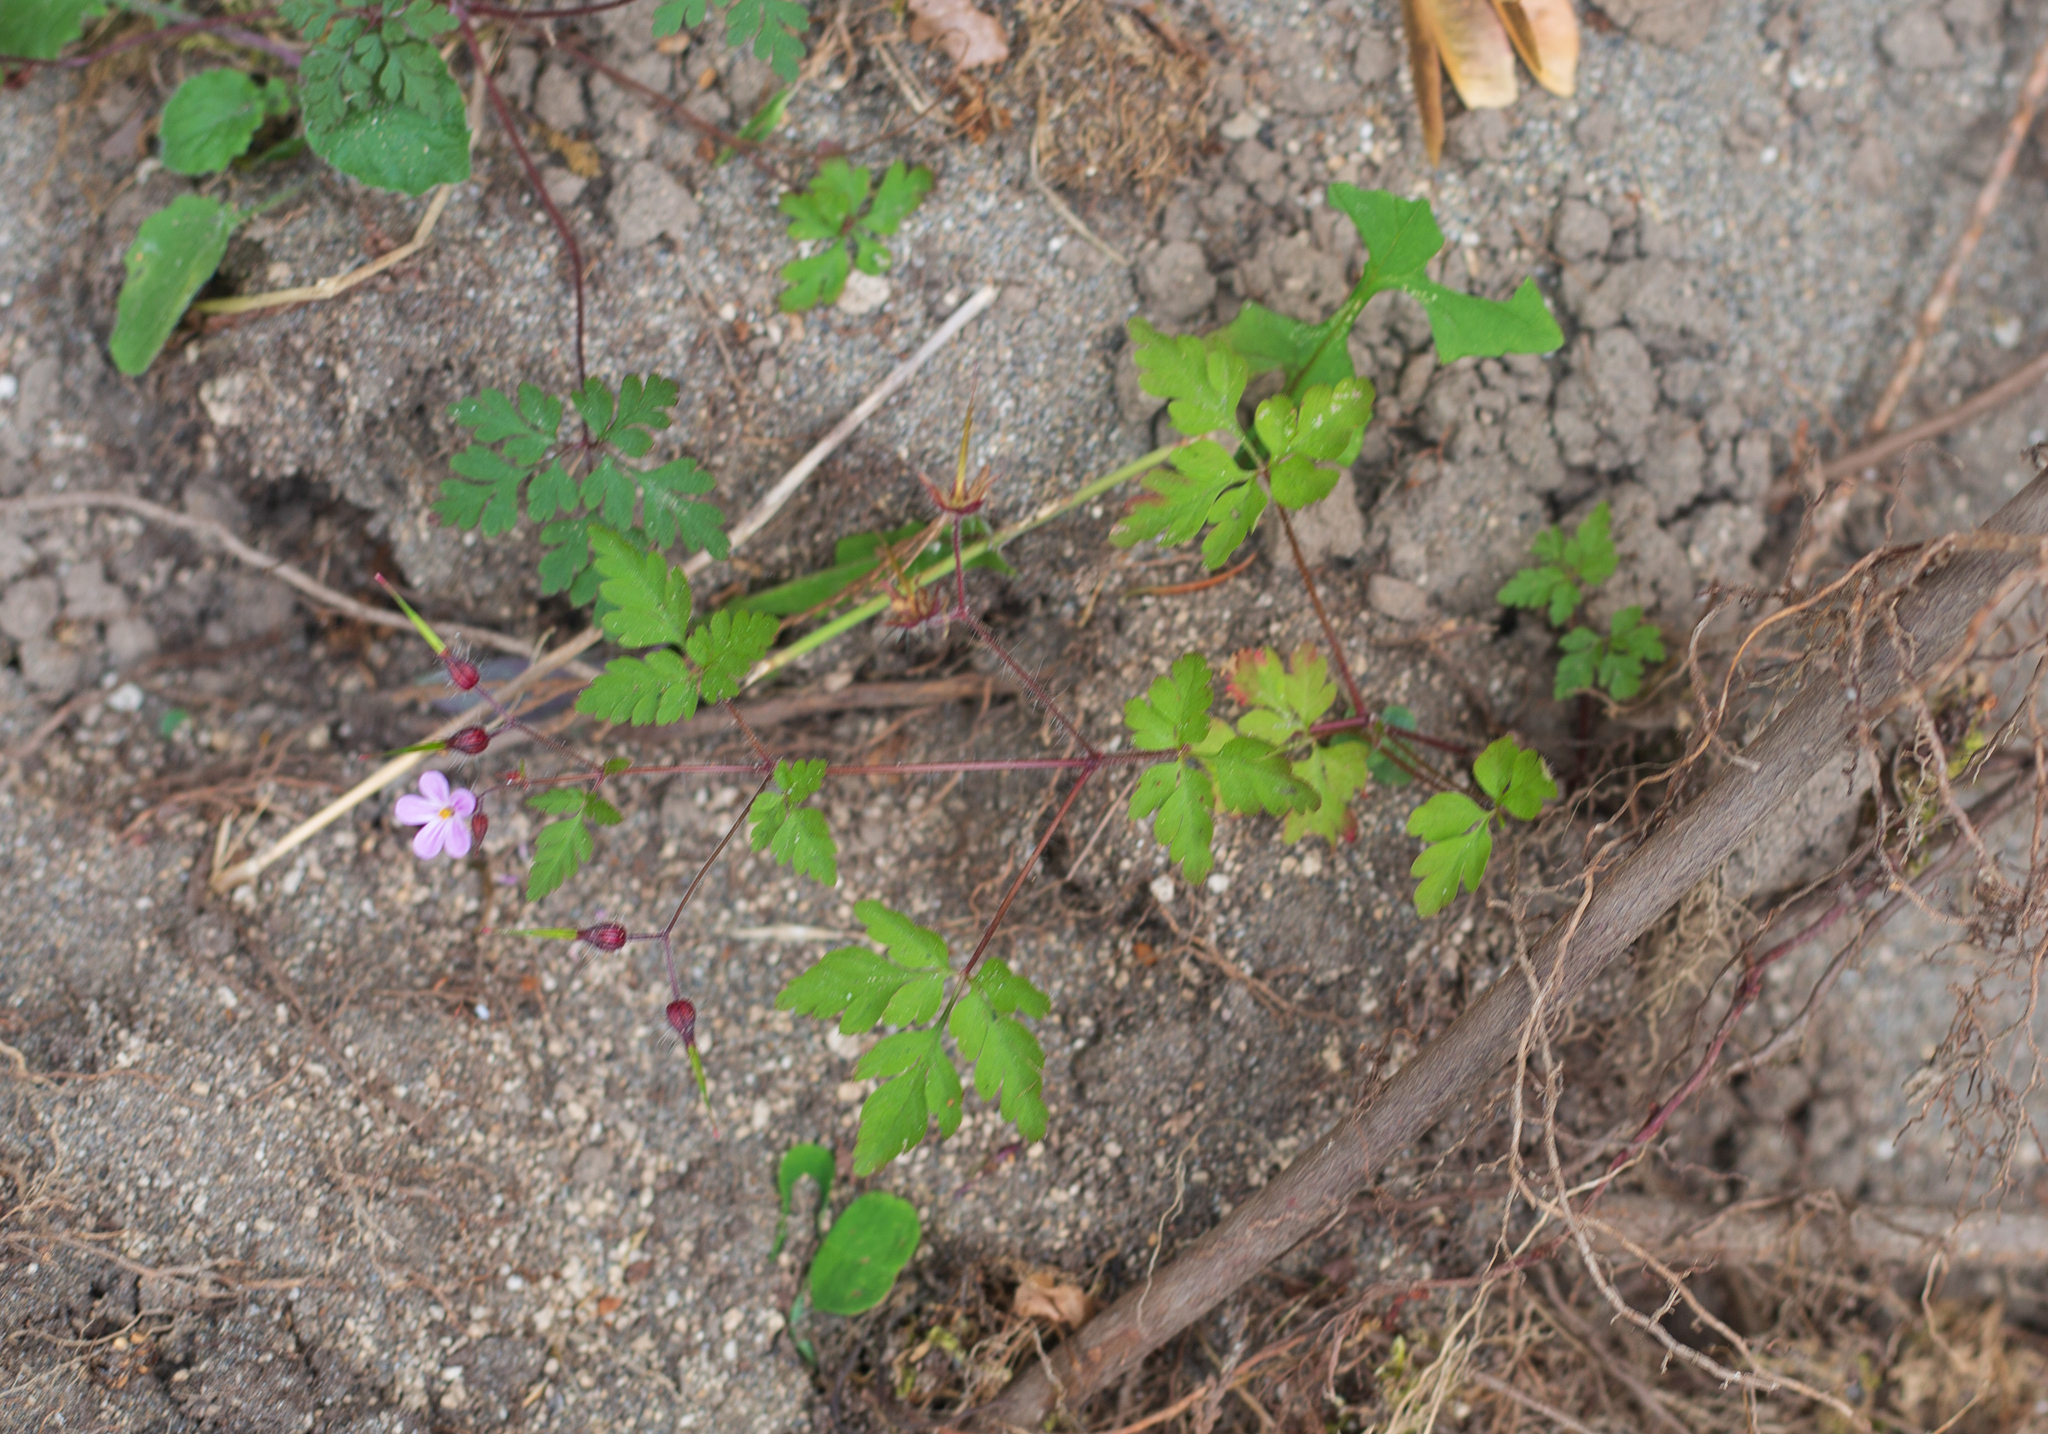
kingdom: Plantae
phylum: Tracheophyta
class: Magnoliopsida
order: Geraniales
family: Geraniaceae
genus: Geranium
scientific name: Geranium robertianum
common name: Herb-robert
